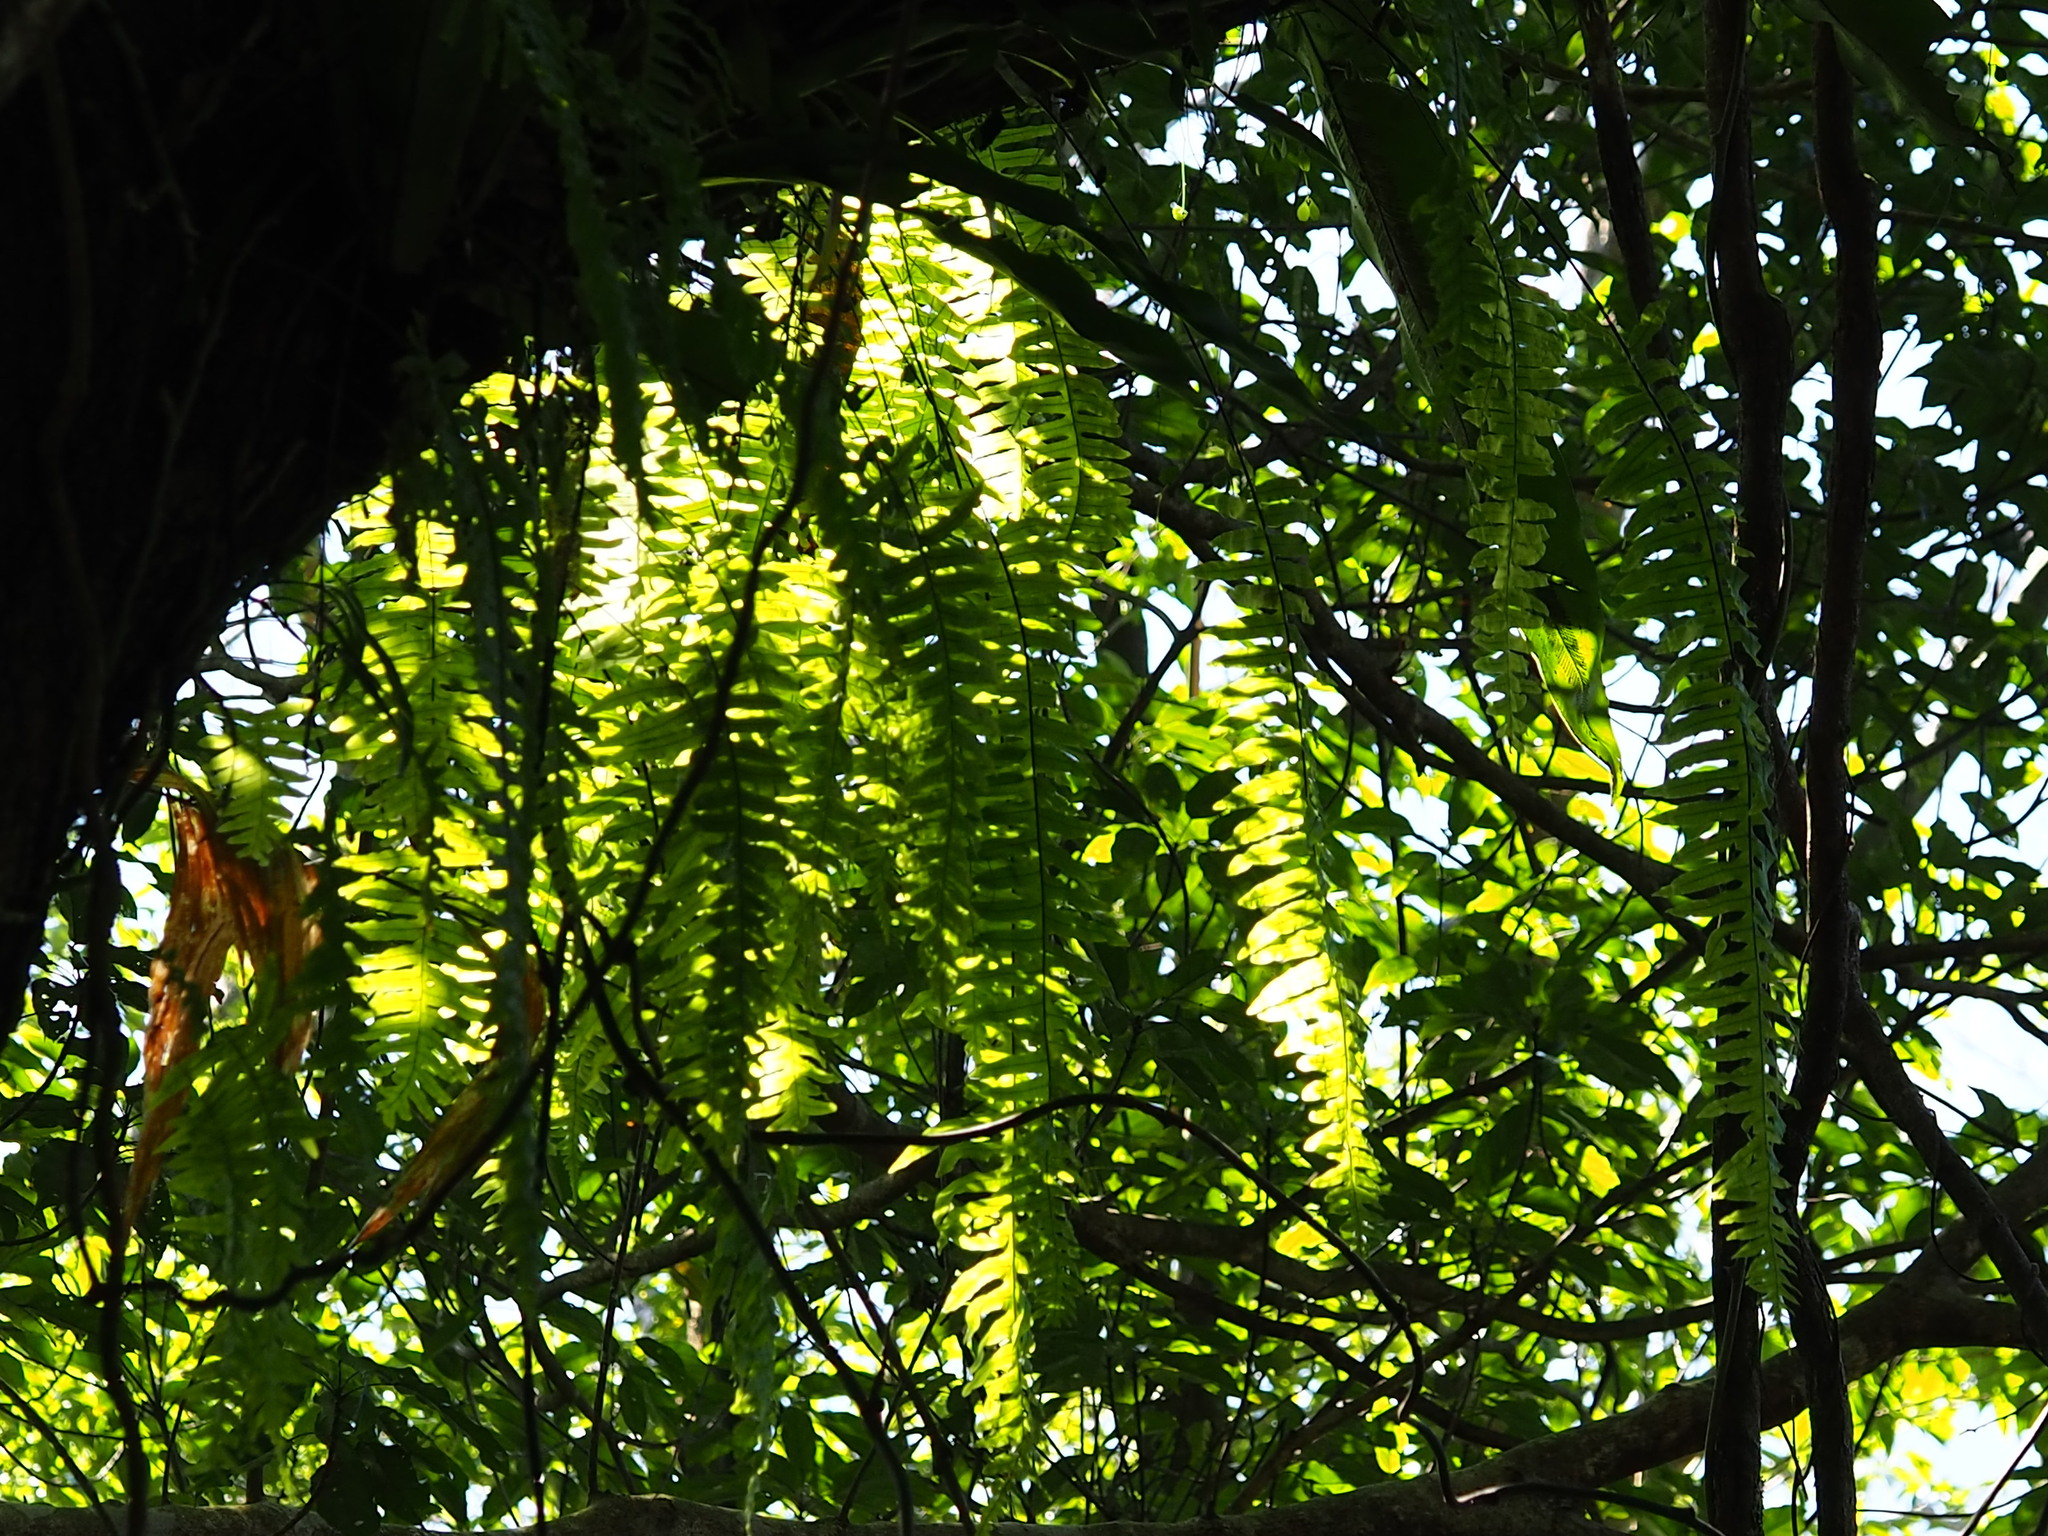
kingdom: Plantae
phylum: Tracheophyta
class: Polypodiopsida
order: Polypodiales
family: Polypodiaceae
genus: Goniophlebium
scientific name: Goniophlebium formosanum
